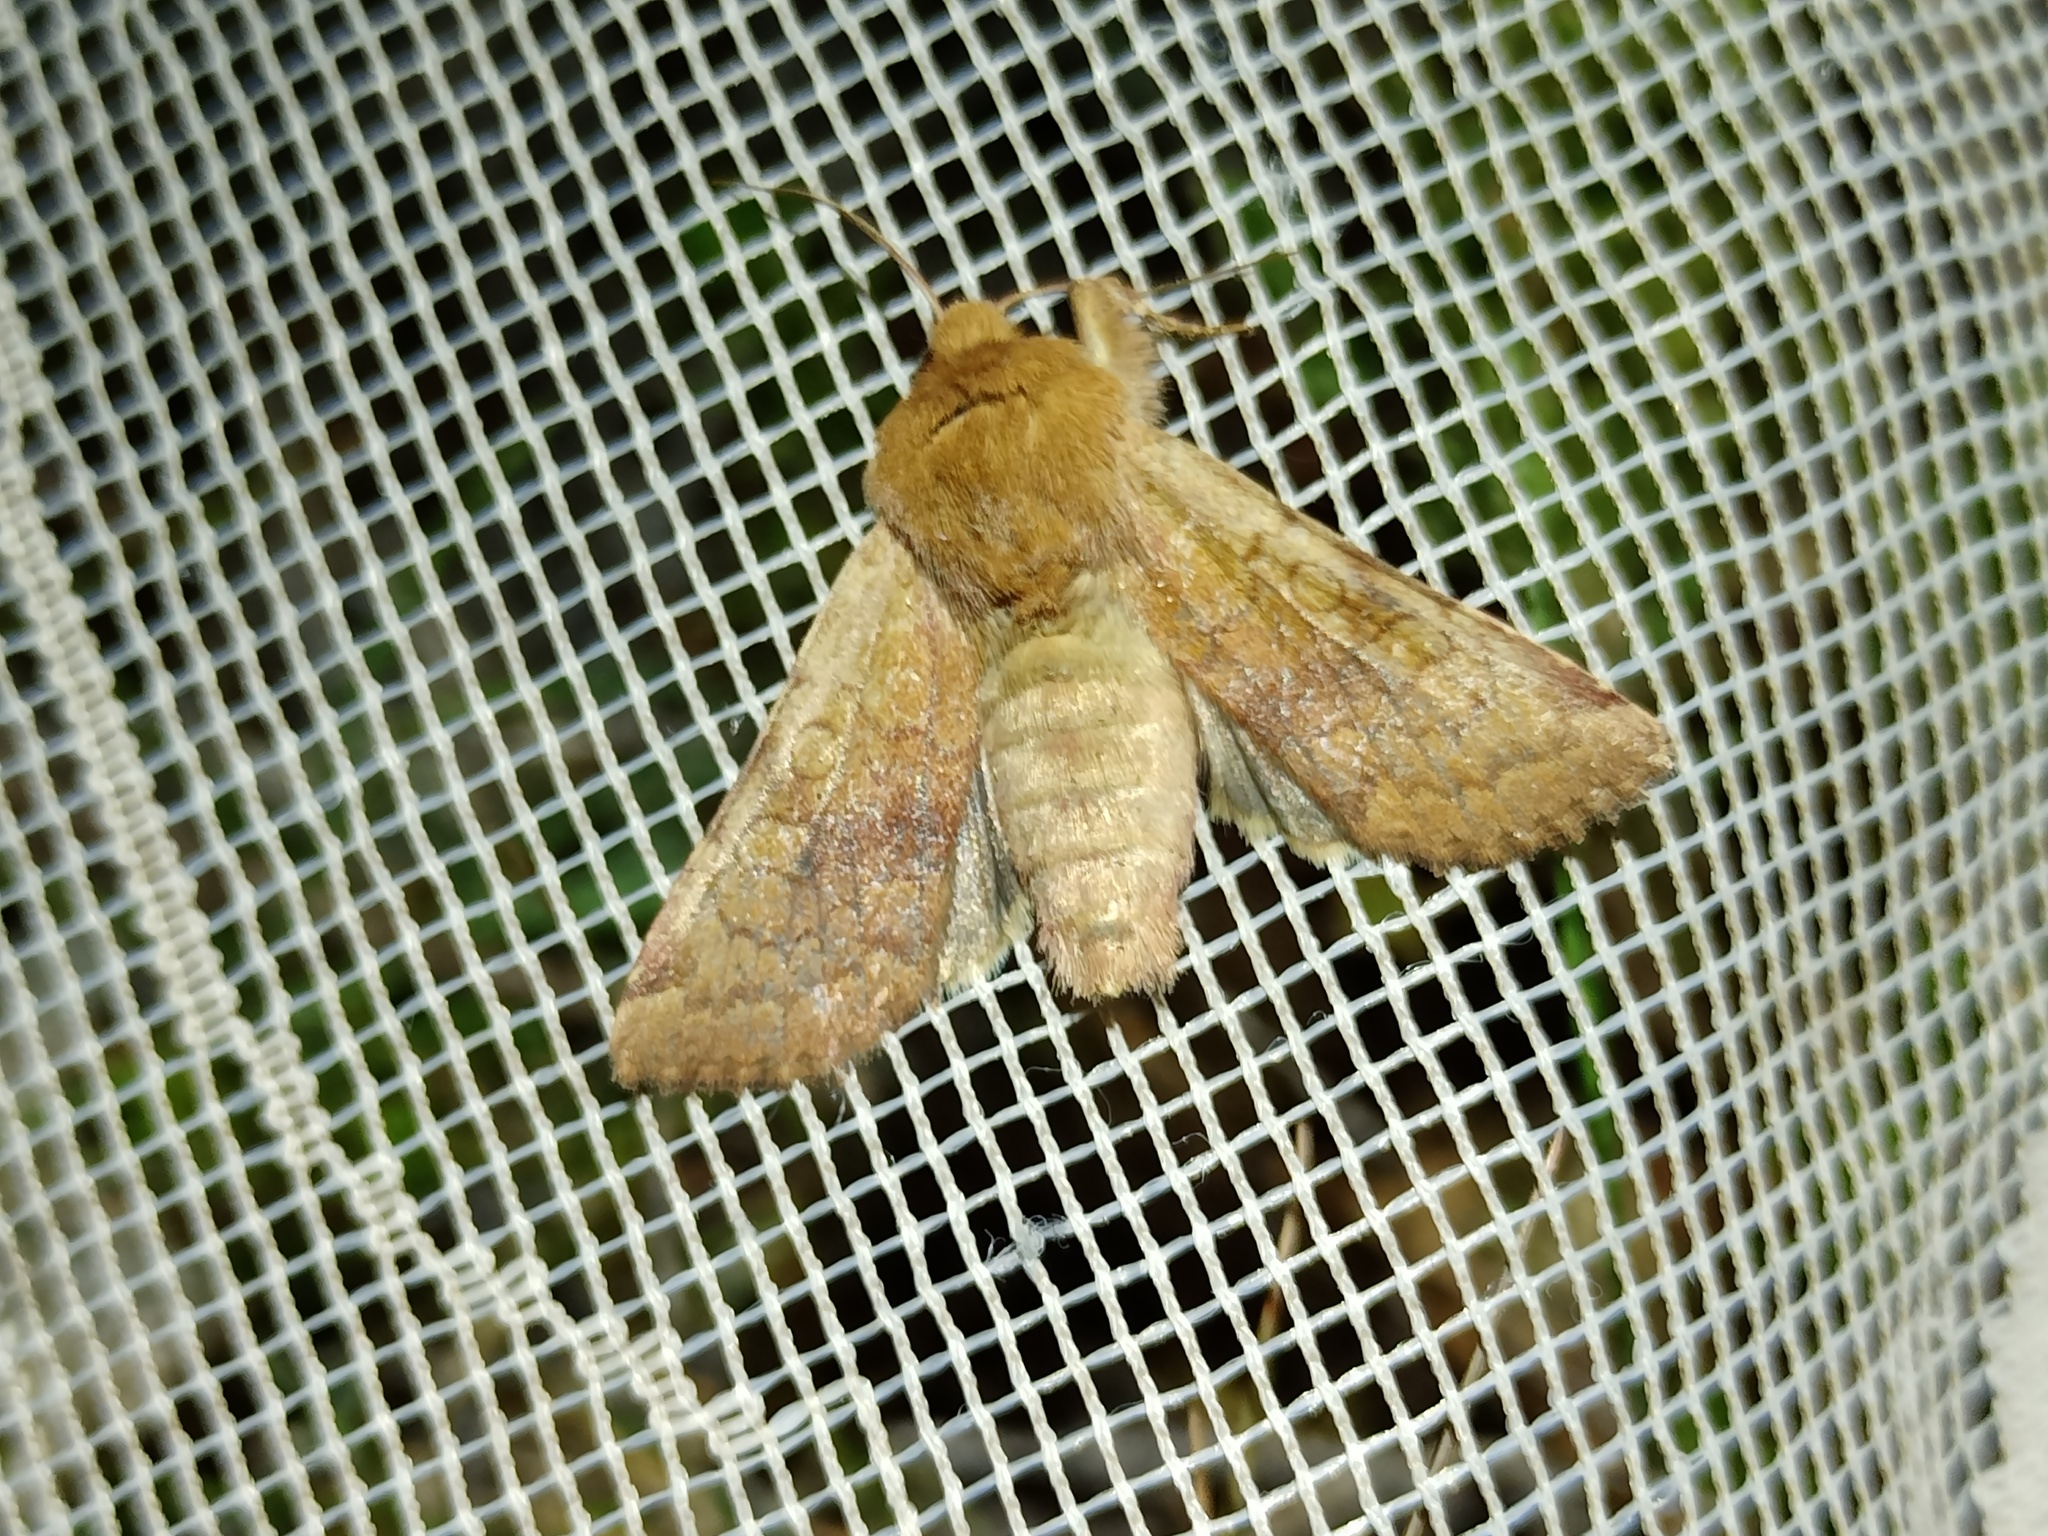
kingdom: Animalia
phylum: Arthropoda
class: Insecta
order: Lepidoptera
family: Noctuidae
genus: Sideridis
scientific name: Sideridis lampra
